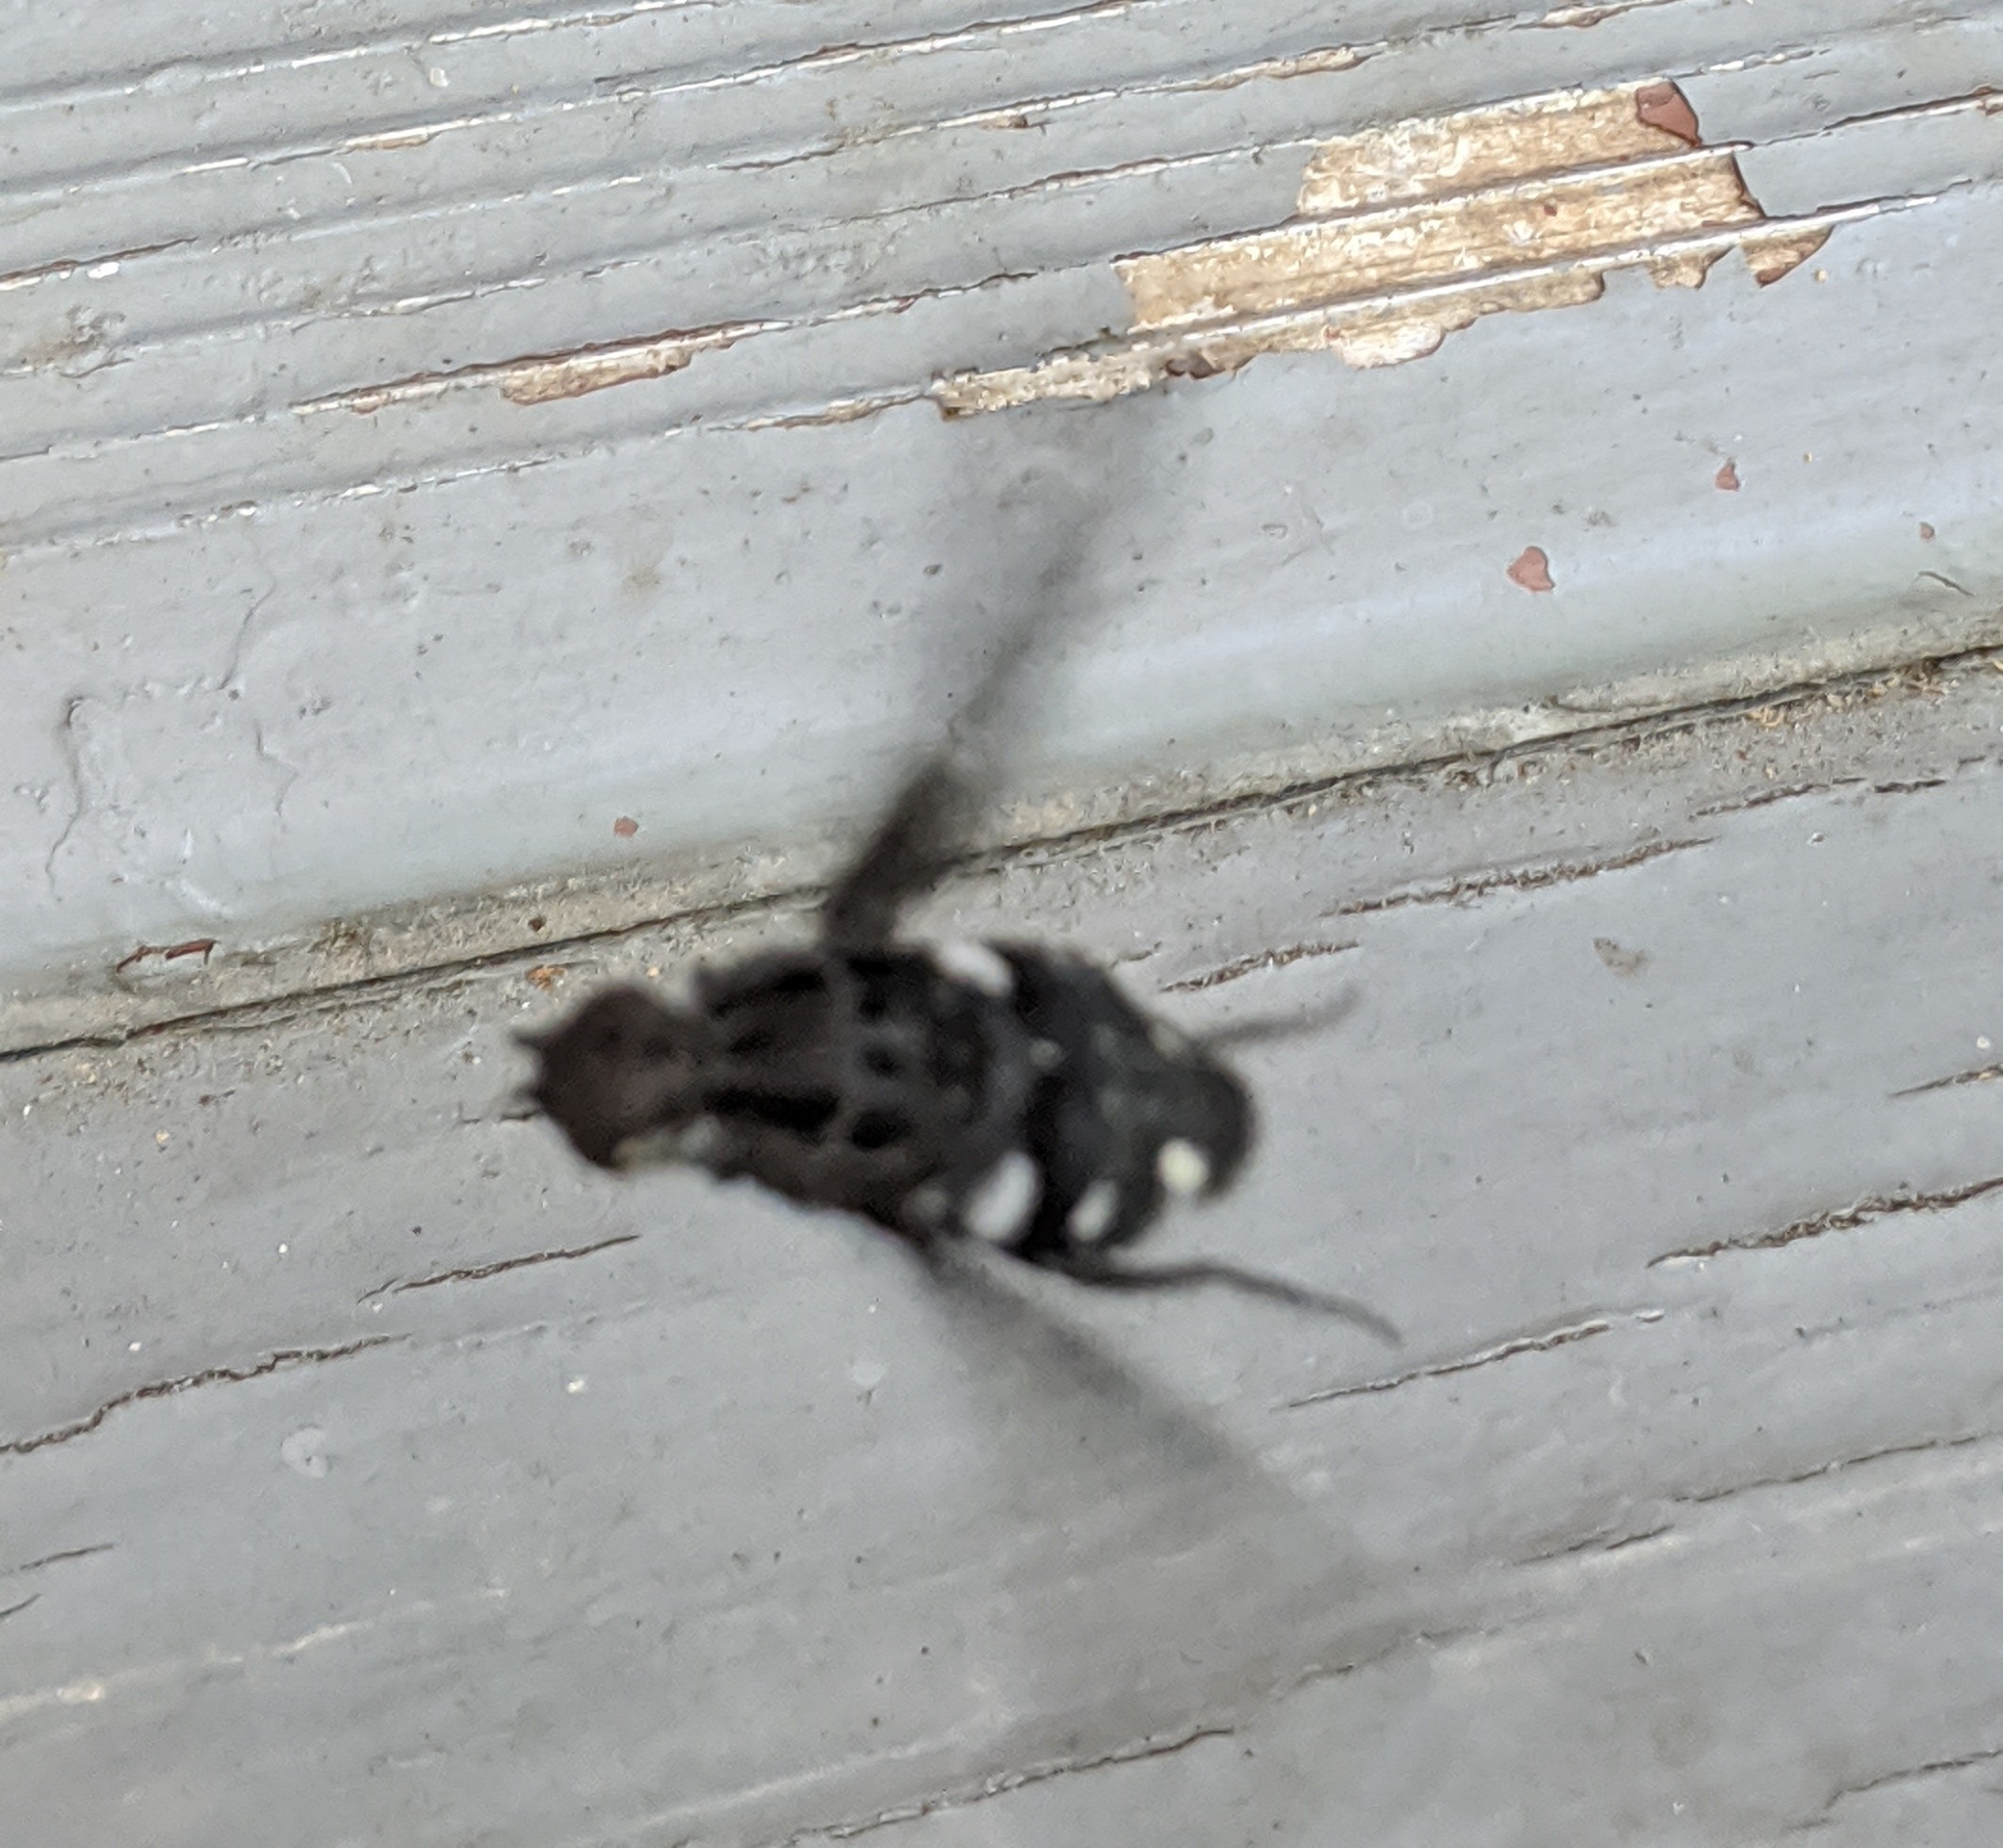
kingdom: Animalia
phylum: Arthropoda
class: Insecta
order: Diptera
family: Bombyliidae
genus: Xenox
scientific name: Xenox tigrinus
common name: Tiger bee fly
